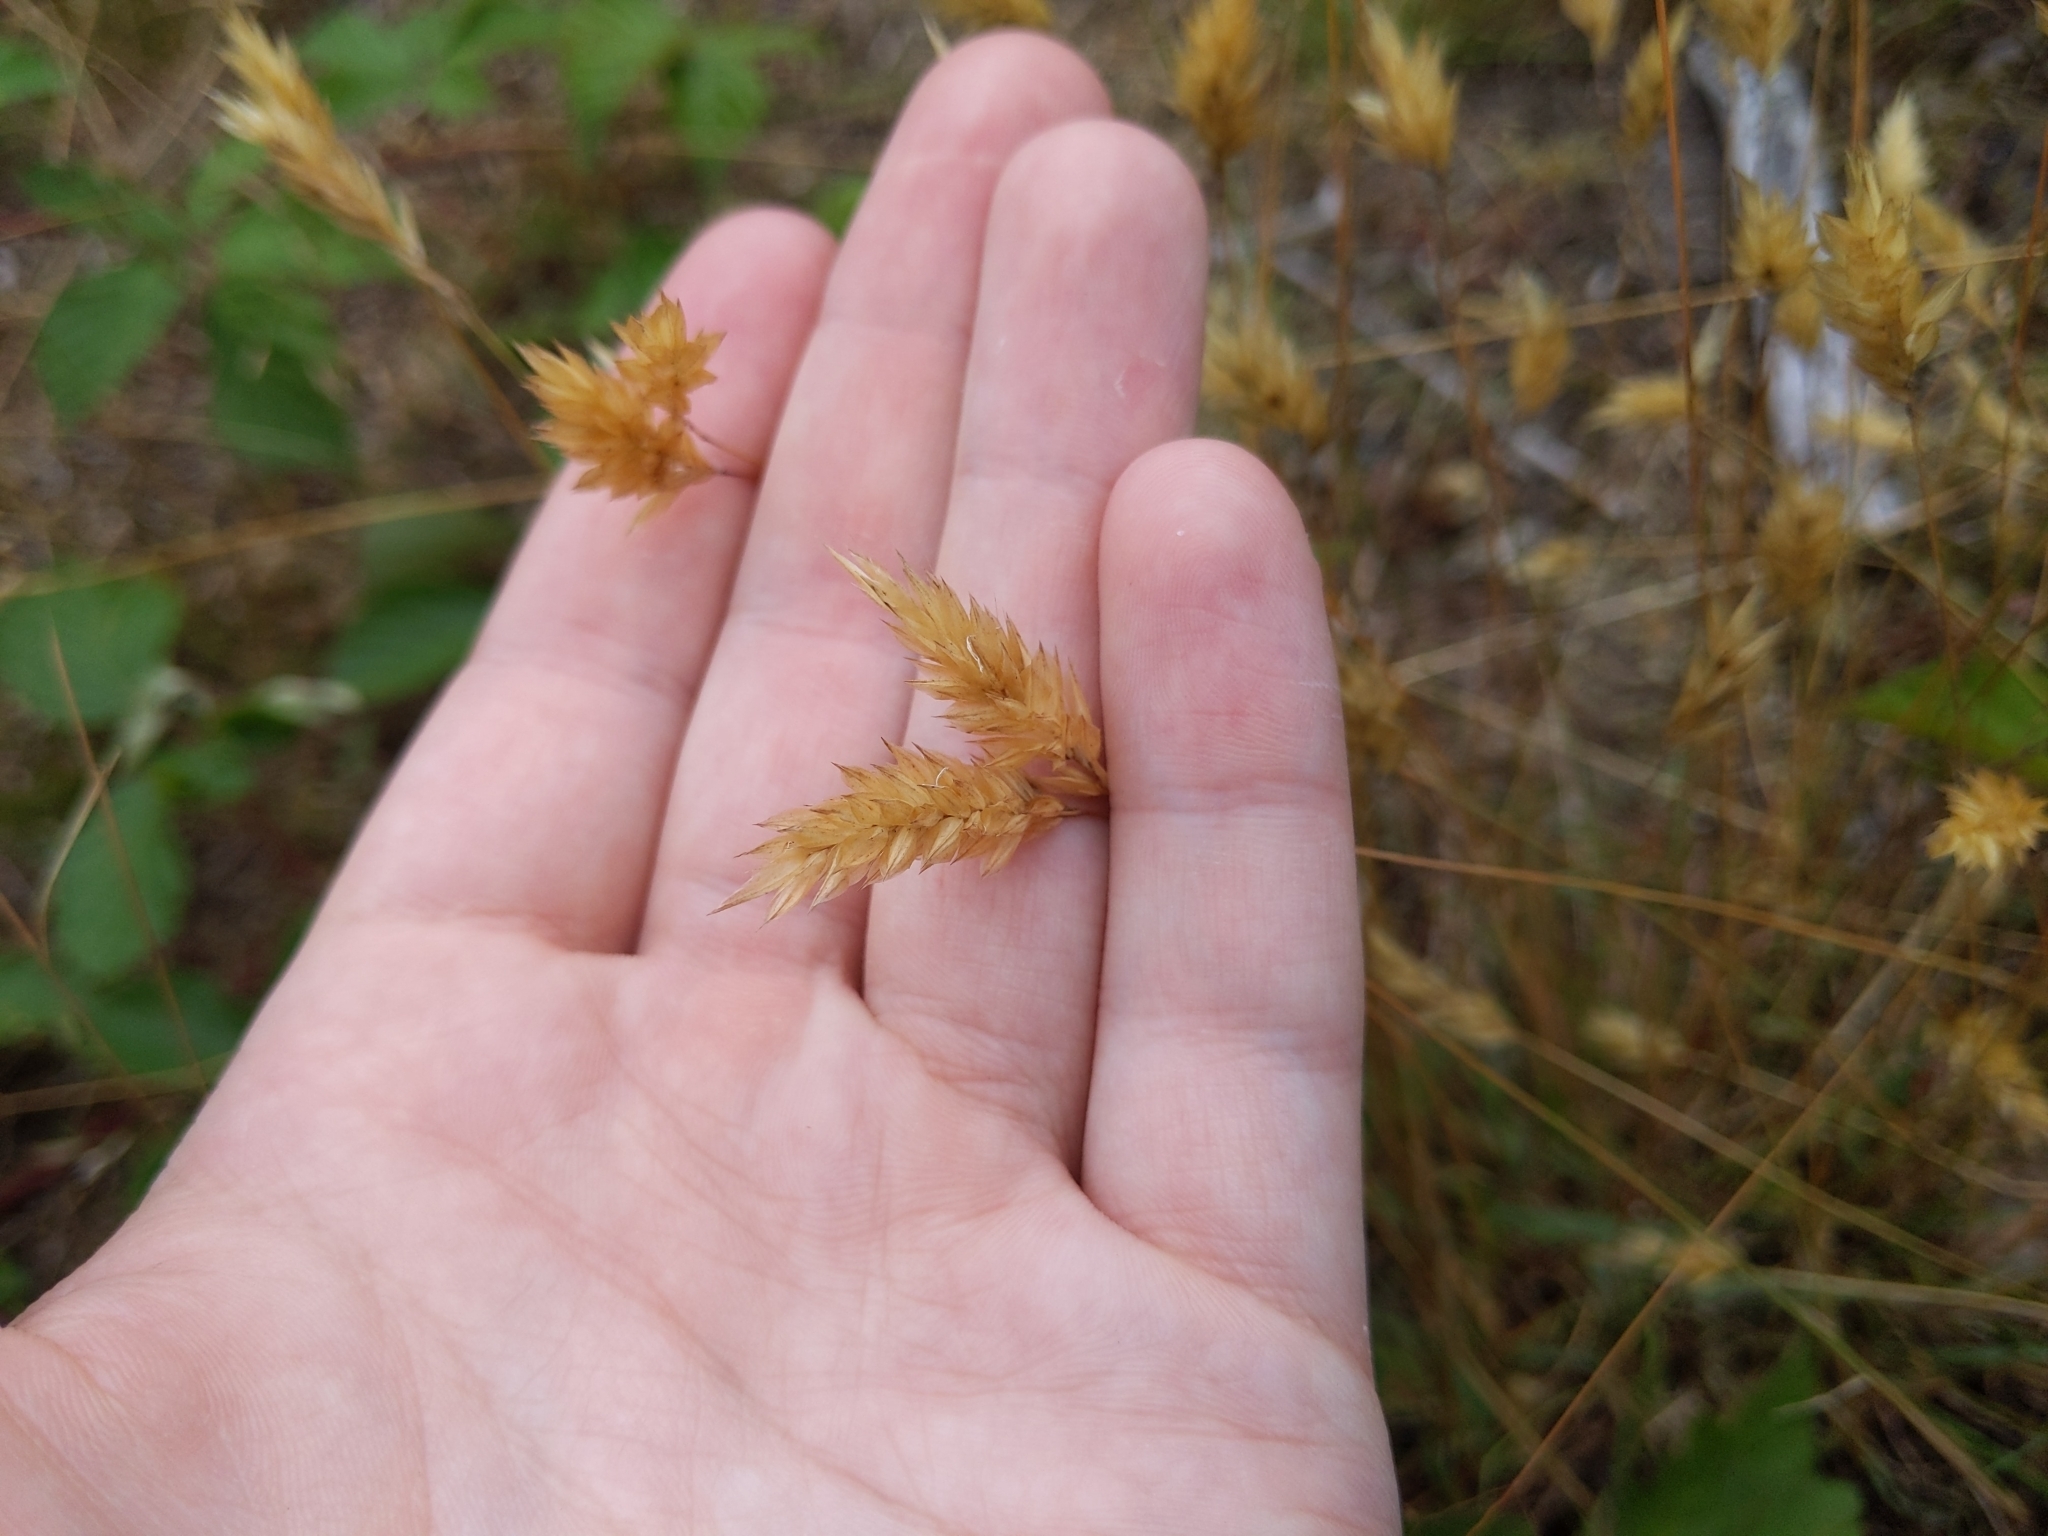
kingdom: Plantae
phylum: Tracheophyta
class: Liliopsida
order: Poales
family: Poaceae
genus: Anthoxanthum
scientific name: Anthoxanthum odoratum
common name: Sweet vernalgrass
